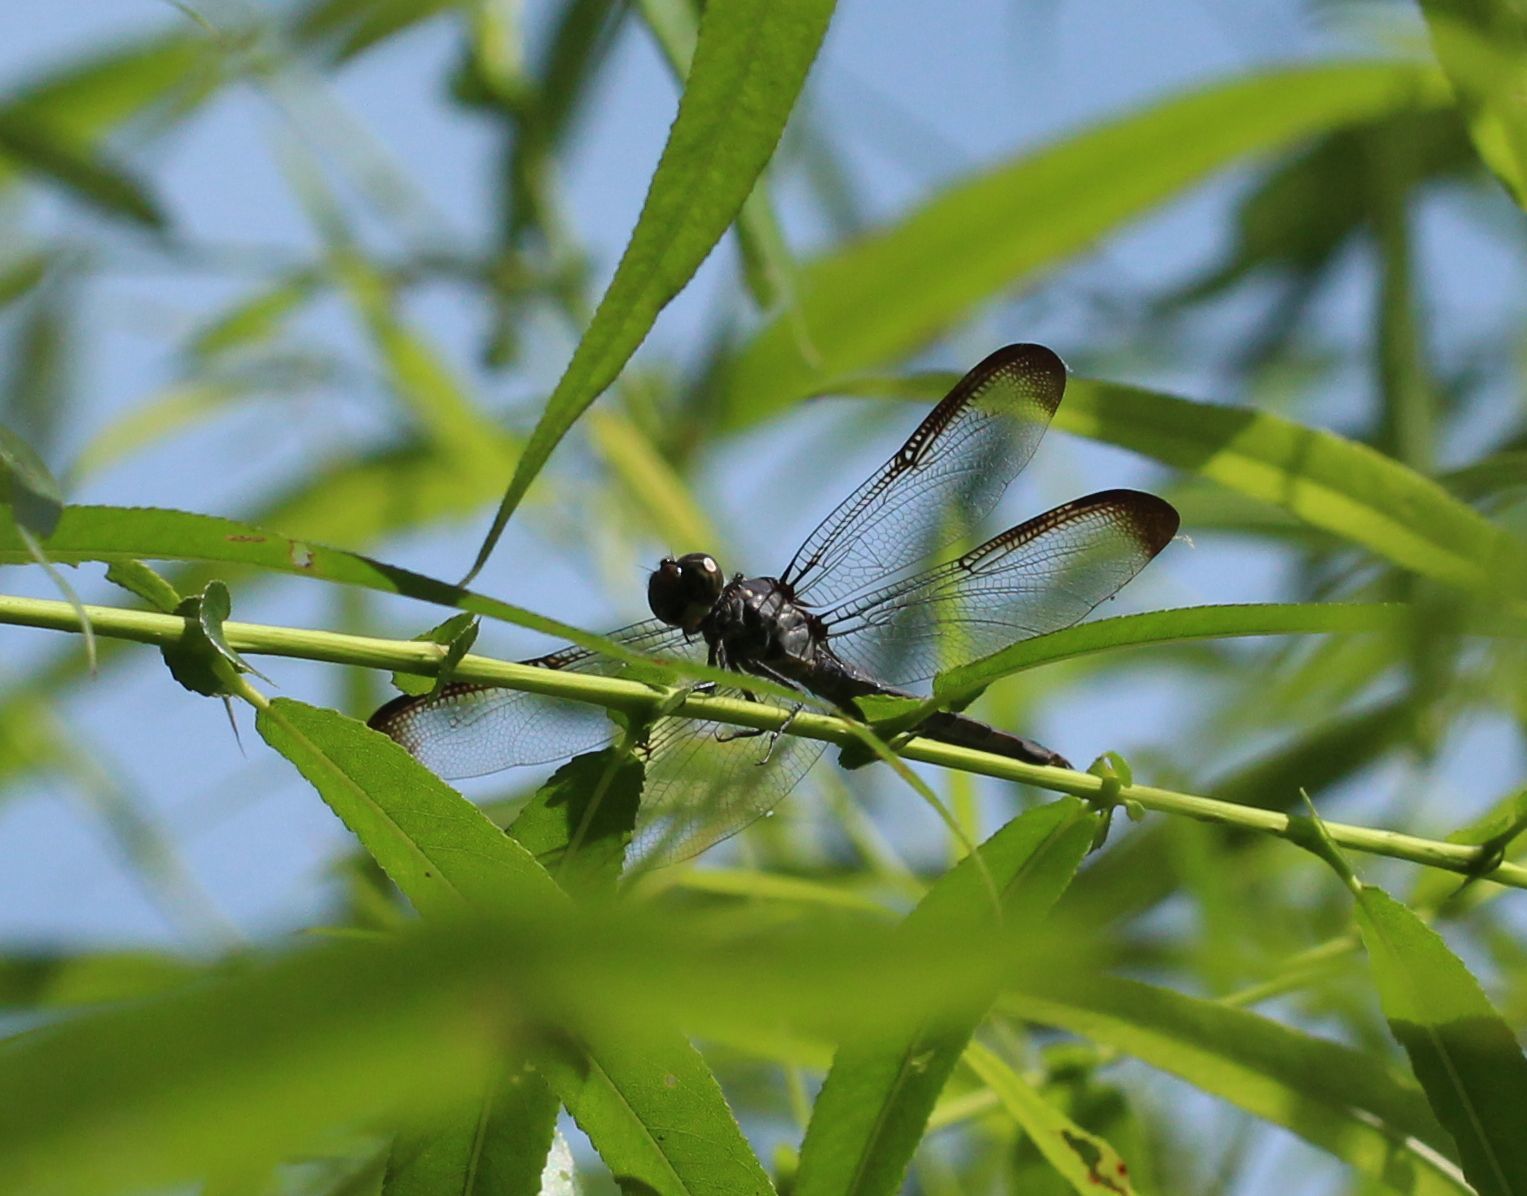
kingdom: Animalia
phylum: Arthropoda
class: Insecta
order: Odonata
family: Libellulidae
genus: Libellula
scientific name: Libellula incesta
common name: Slaty skimmer
